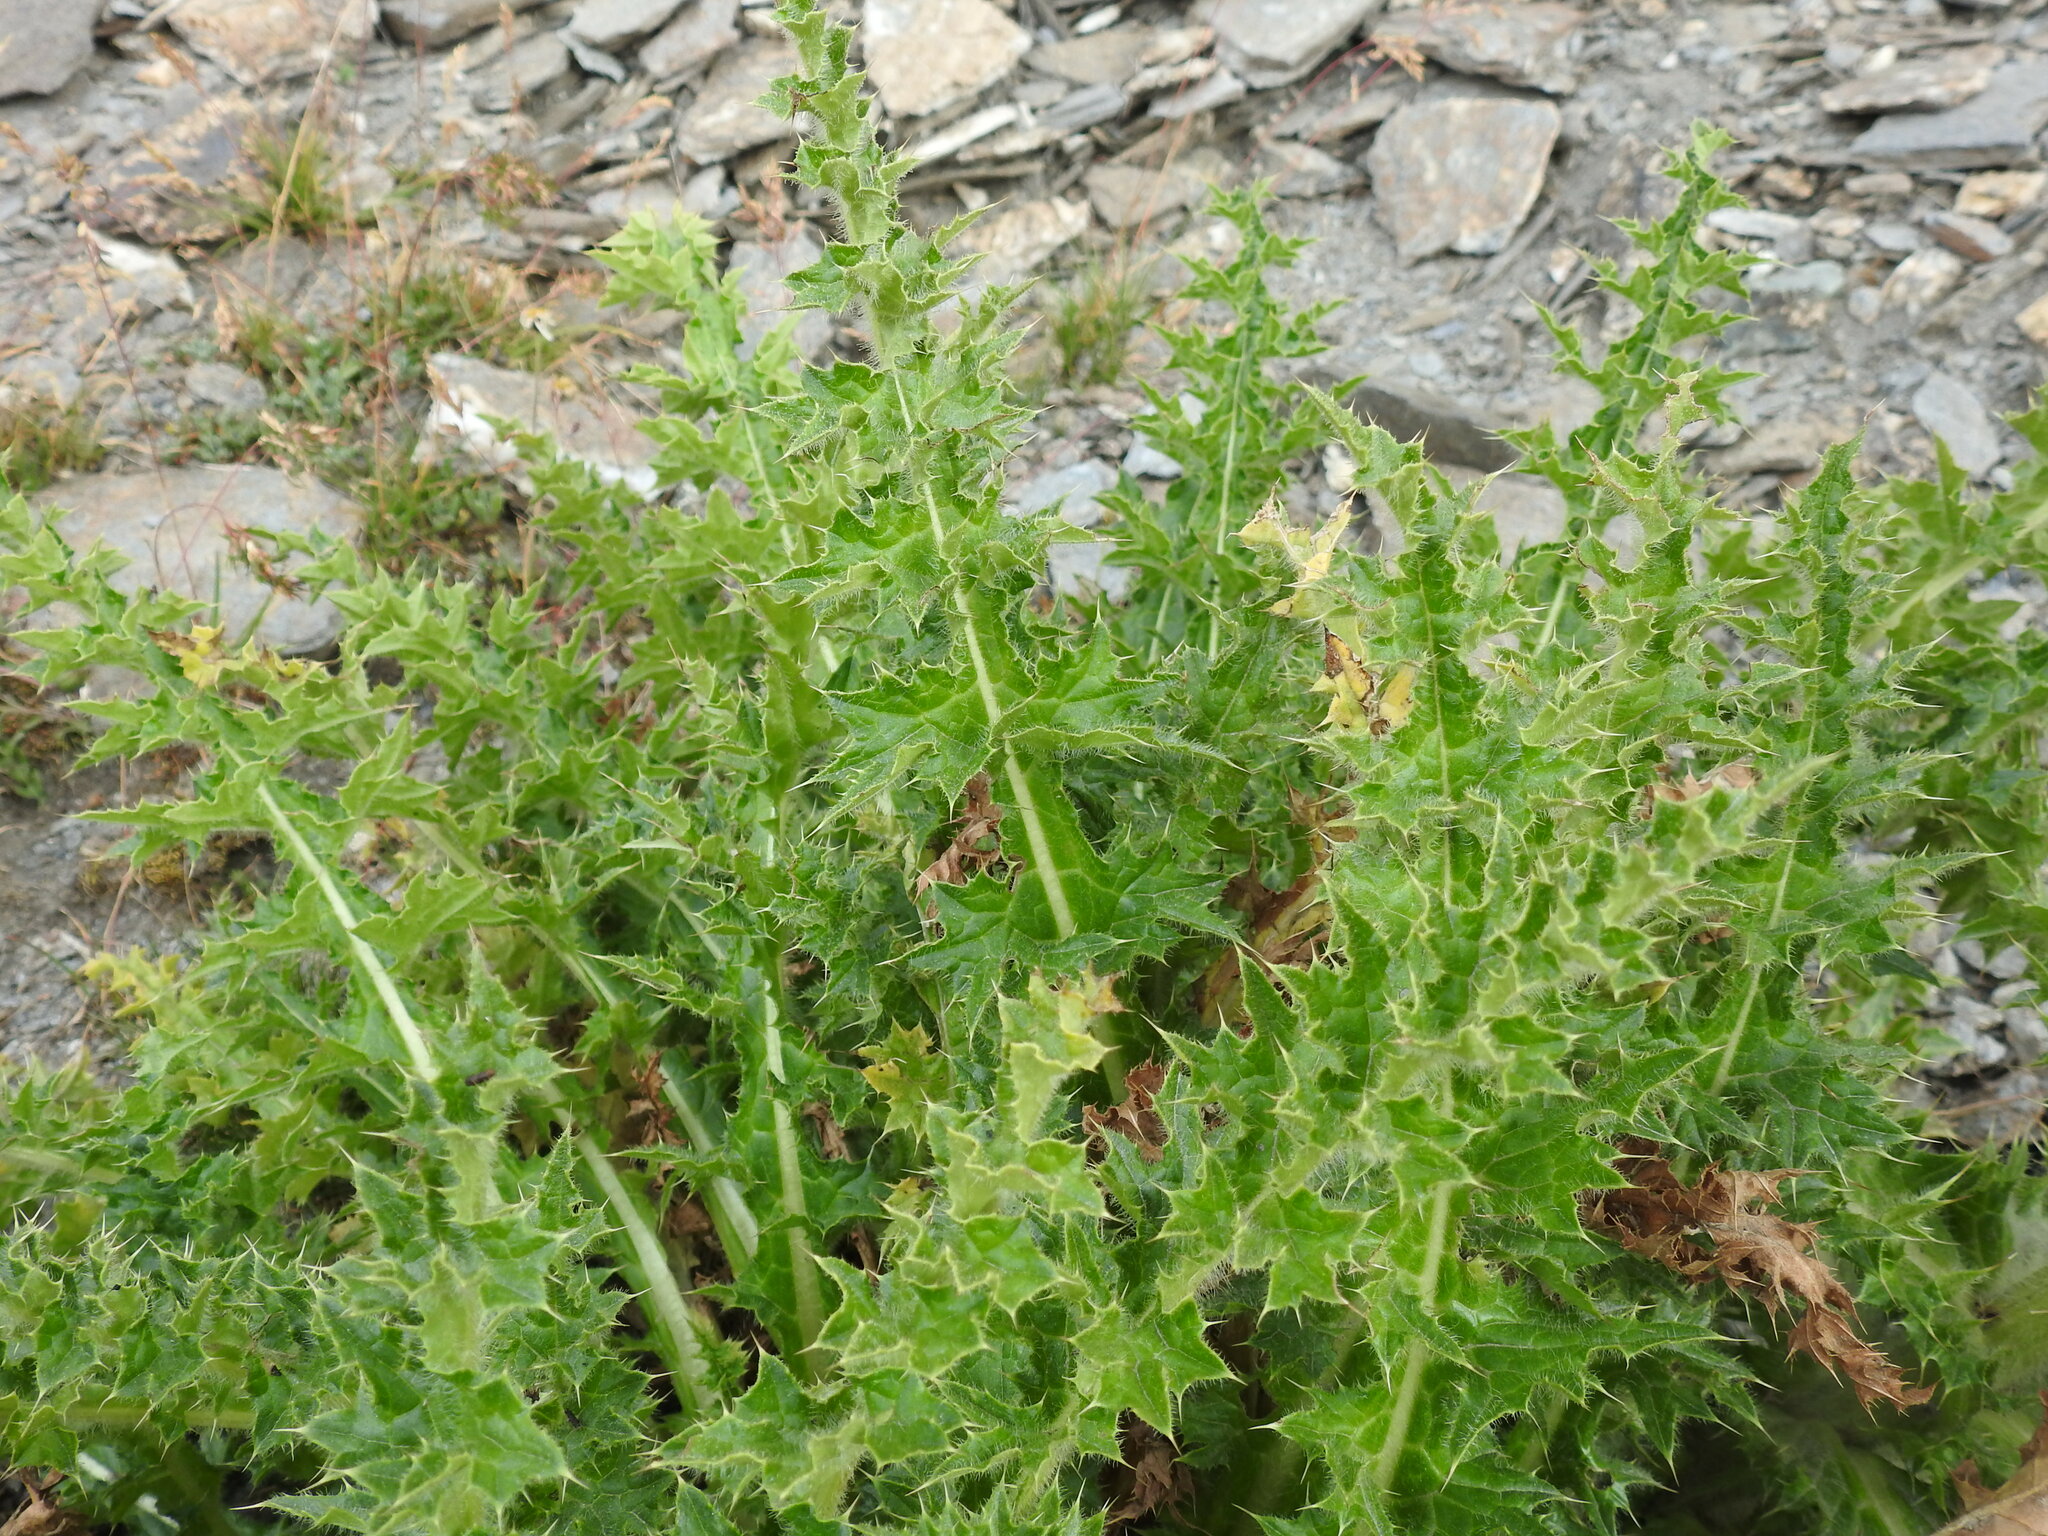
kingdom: Plantae
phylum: Tracheophyta
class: Magnoliopsida
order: Asterales
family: Asteraceae
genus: Cirsium
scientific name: Cirsium spinosissimum
